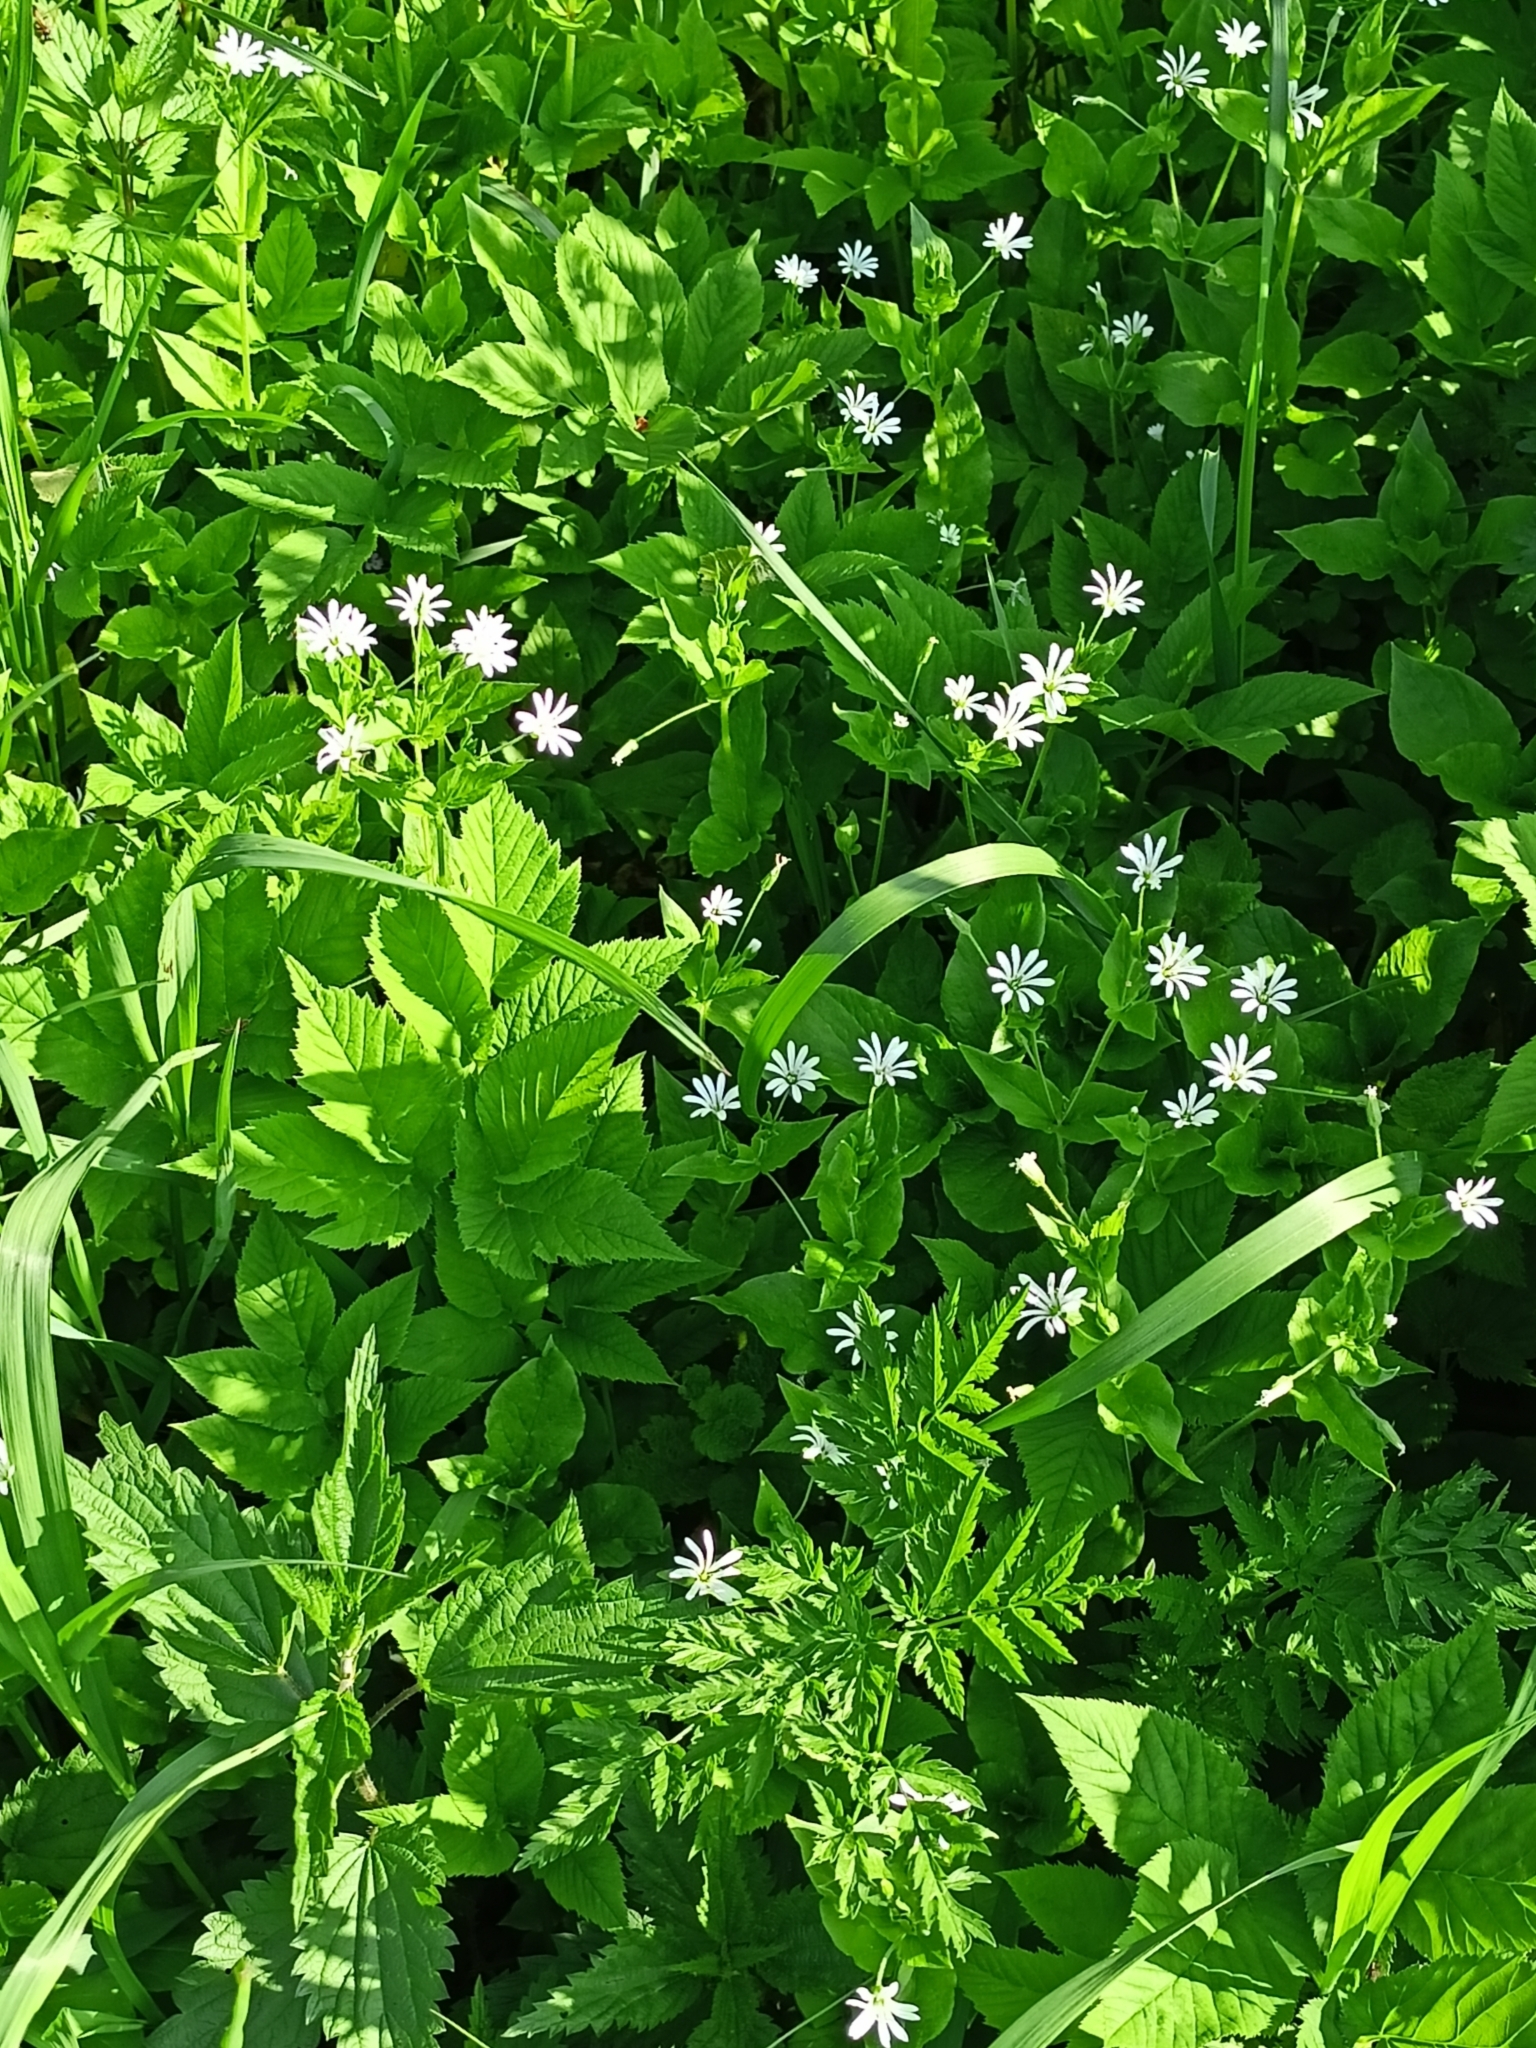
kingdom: Plantae
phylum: Tracheophyta
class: Magnoliopsida
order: Caryophyllales
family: Caryophyllaceae
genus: Stellaria
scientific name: Stellaria nemorum
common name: Wood stitchwort
